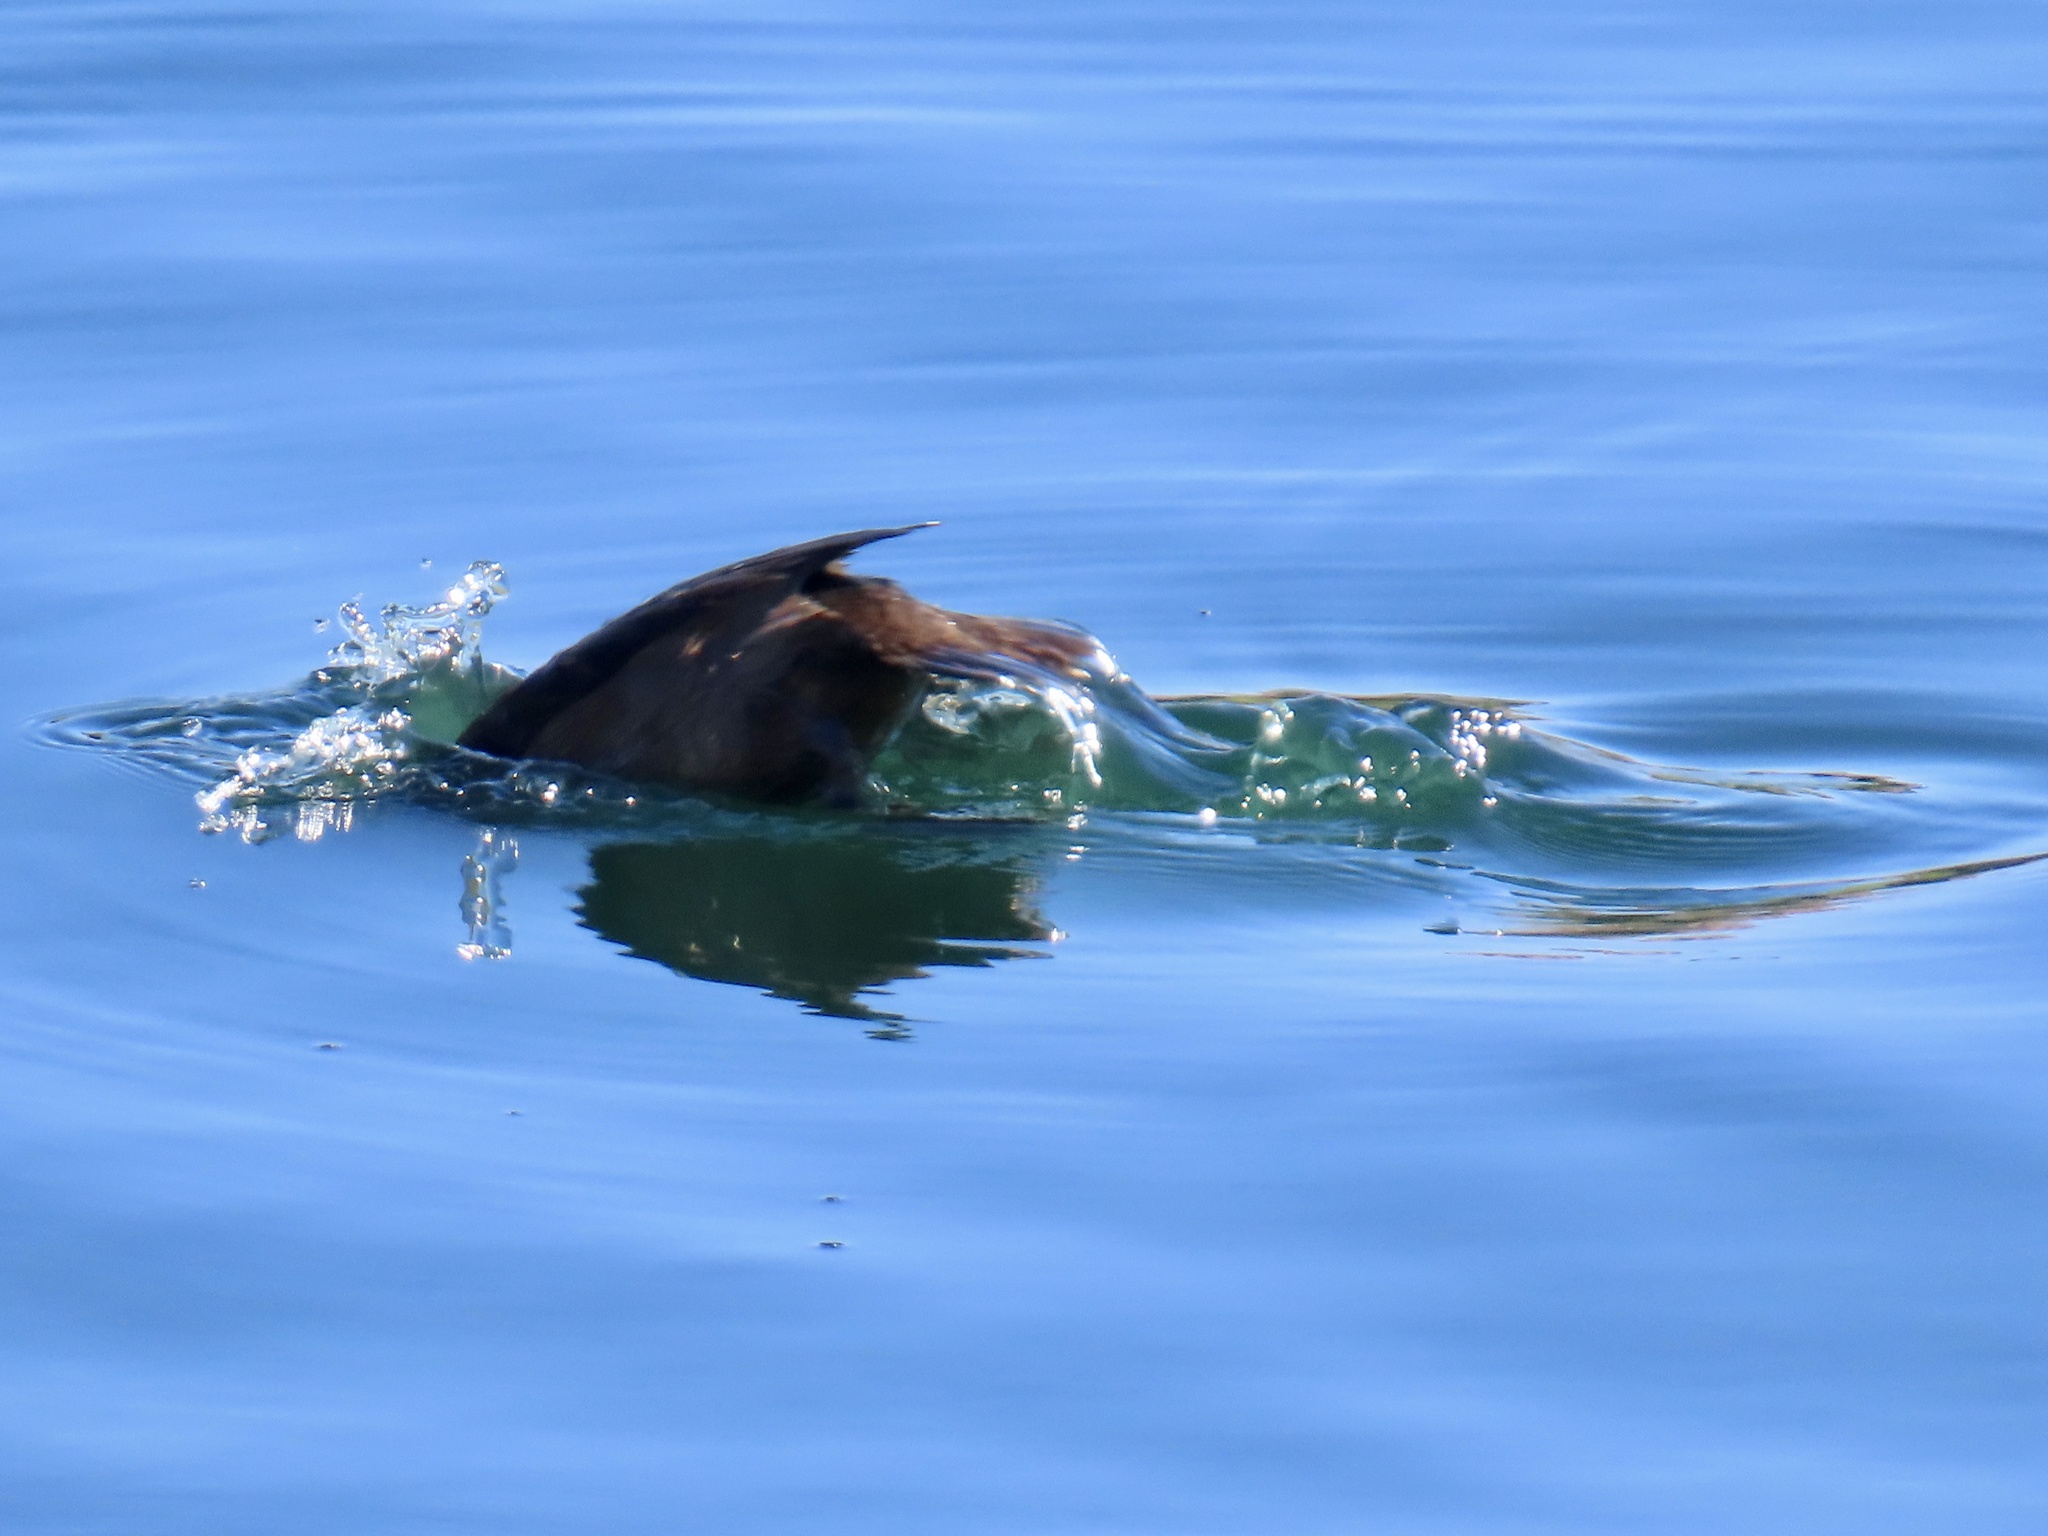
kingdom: Animalia
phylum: Chordata
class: Aves
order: Anseriformes
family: Anatidae
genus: Aythya
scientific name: Aythya collaris
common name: Ring-necked duck
